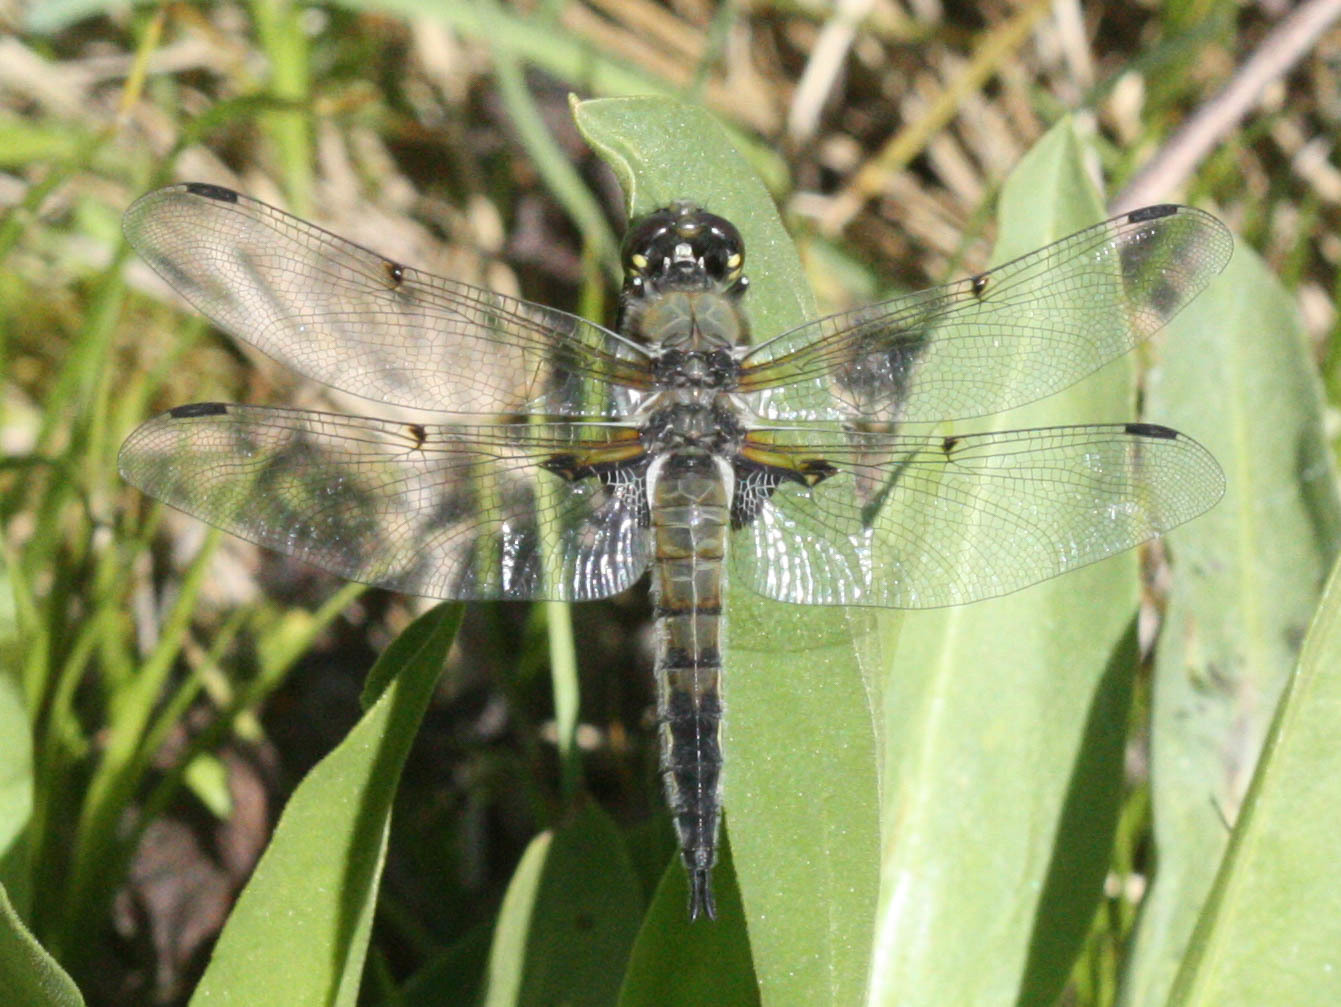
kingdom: Animalia
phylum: Arthropoda
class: Insecta
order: Odonata
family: Libellulidae
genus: Libellula
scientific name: Libellula quadrimaculata
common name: Four-spotted chaser
